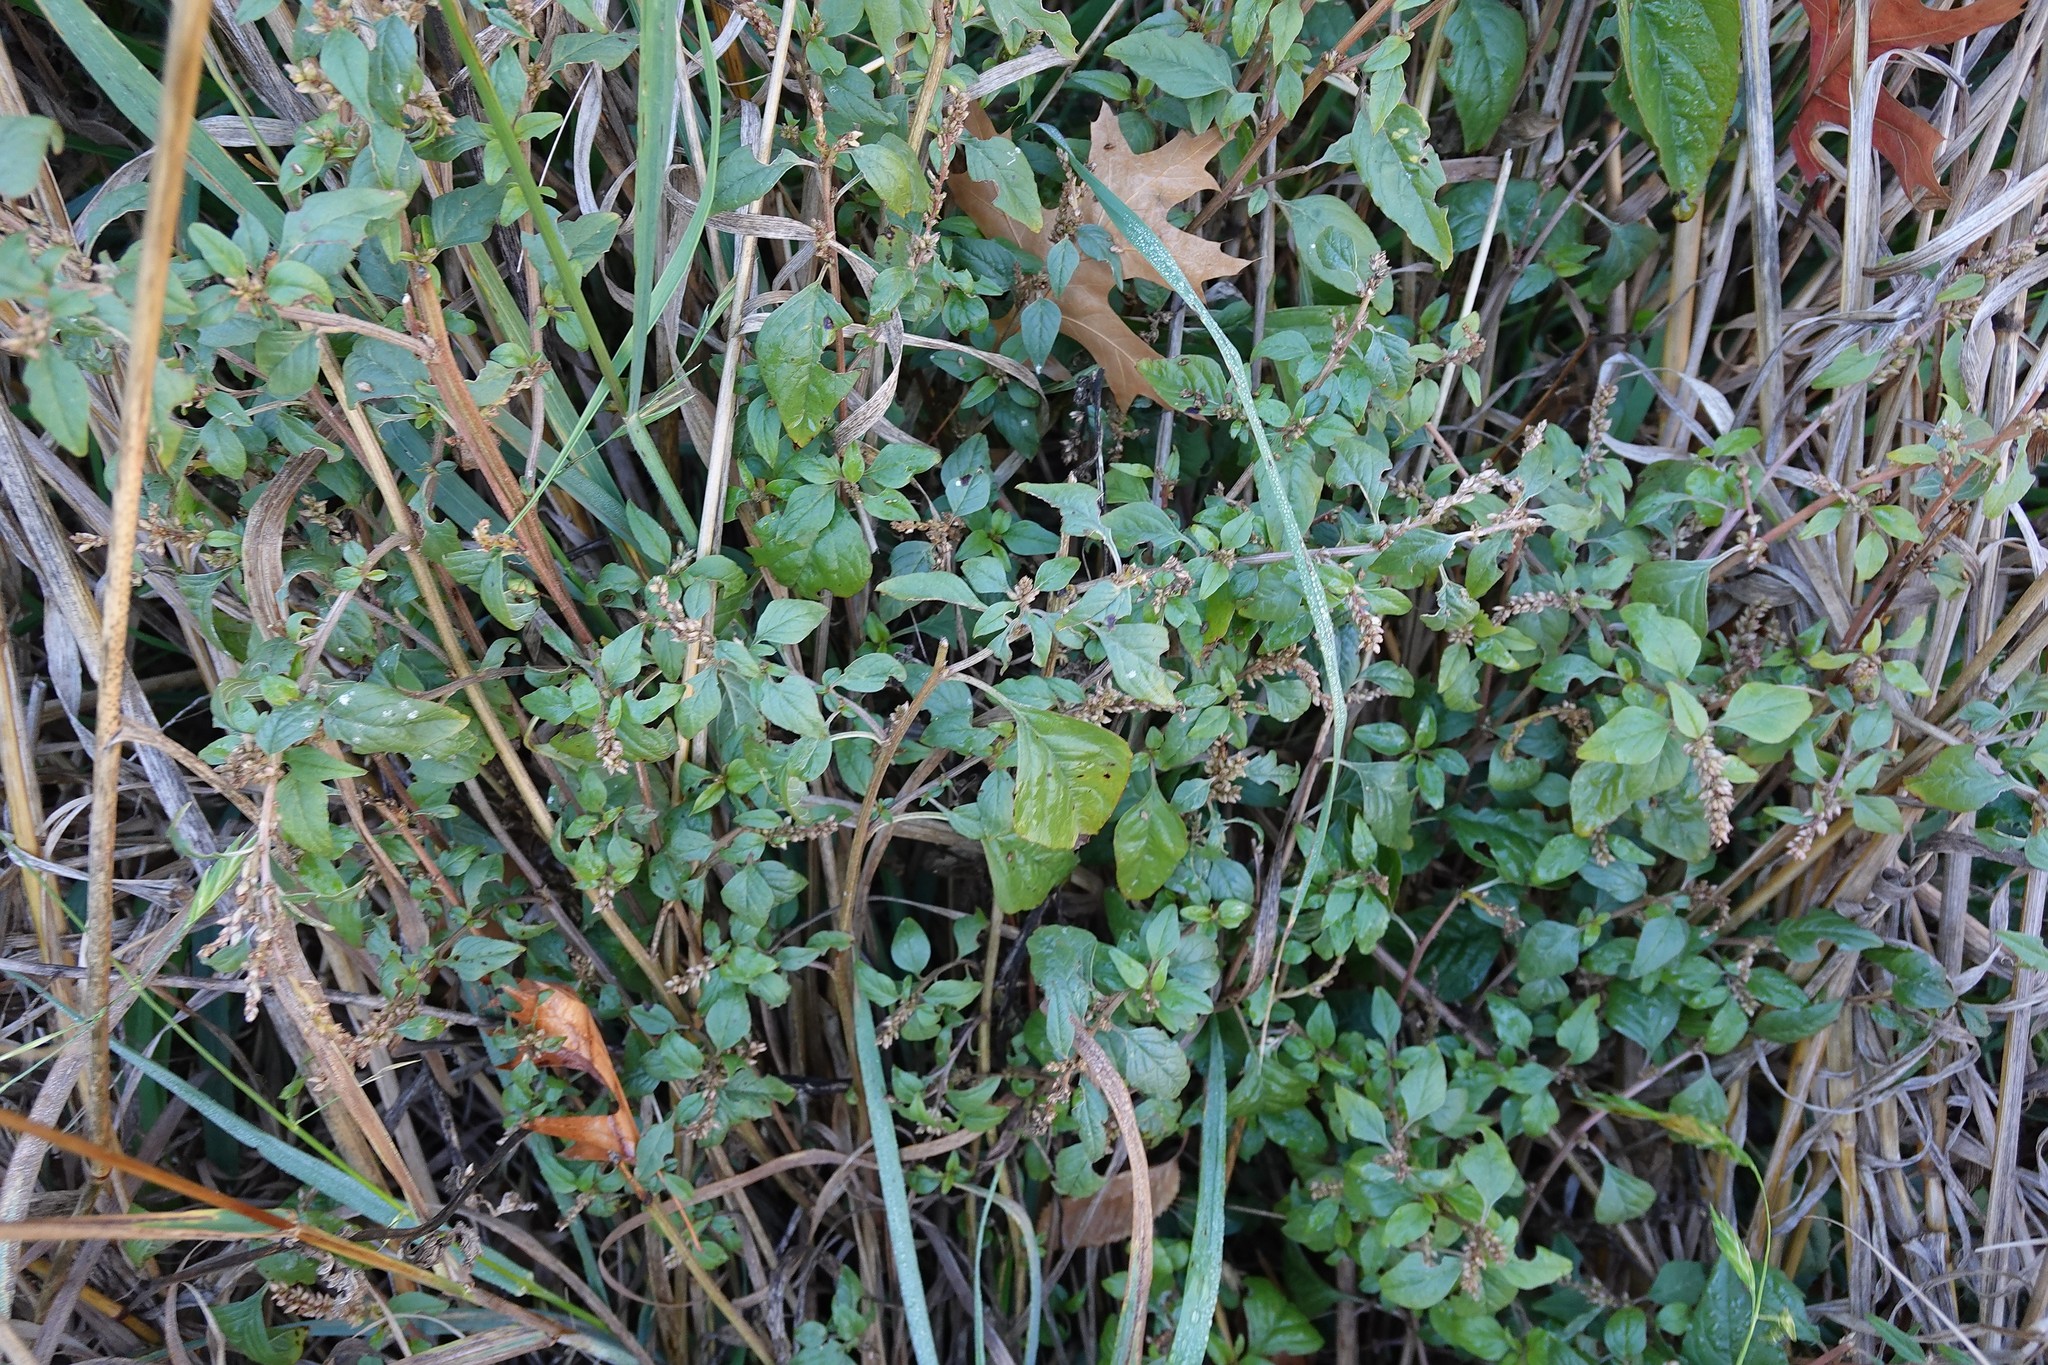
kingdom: Plantae
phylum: Tracheophyta
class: Magnoliopsida
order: Rosales
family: Urticaceae
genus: Parietaria
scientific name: Parietaria judaica
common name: Pellitory-of-the-wall
